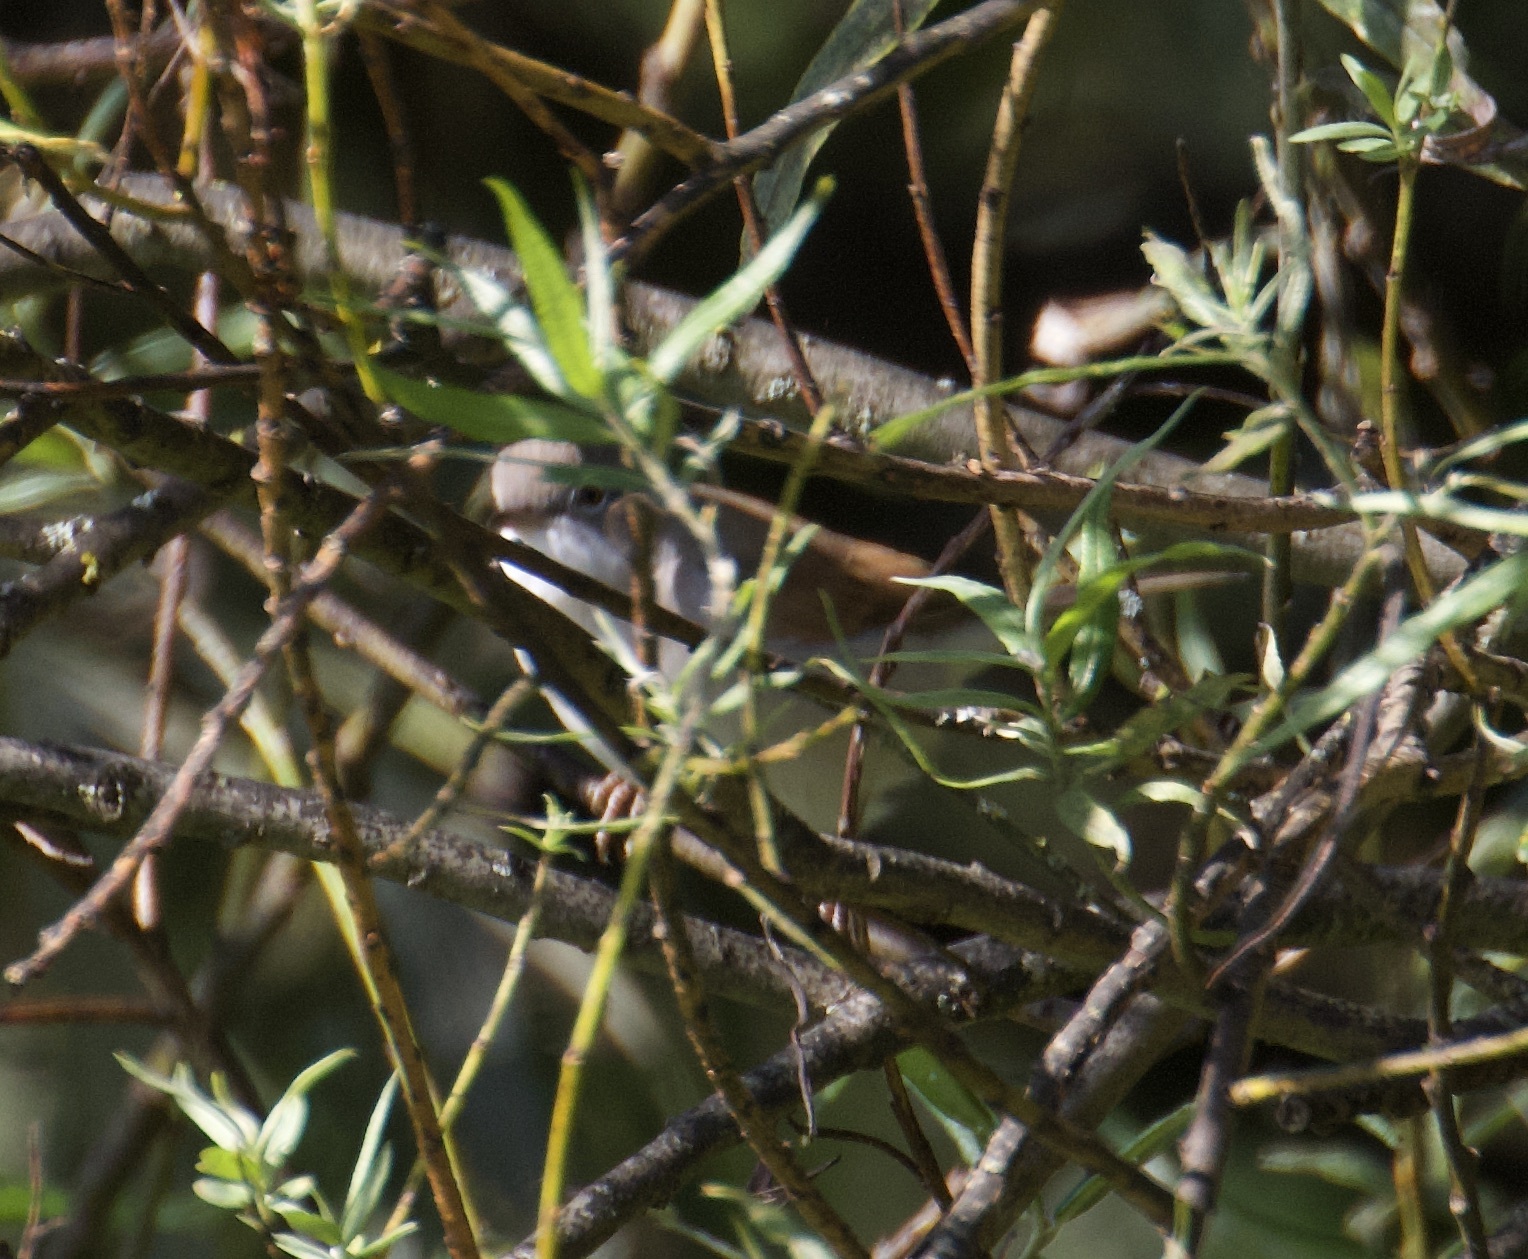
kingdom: Animalia
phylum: Chordata
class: Aves
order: Passeriformes
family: Sylviidae
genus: Sylvia
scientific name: Sylvia communis
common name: Common whitethroat
